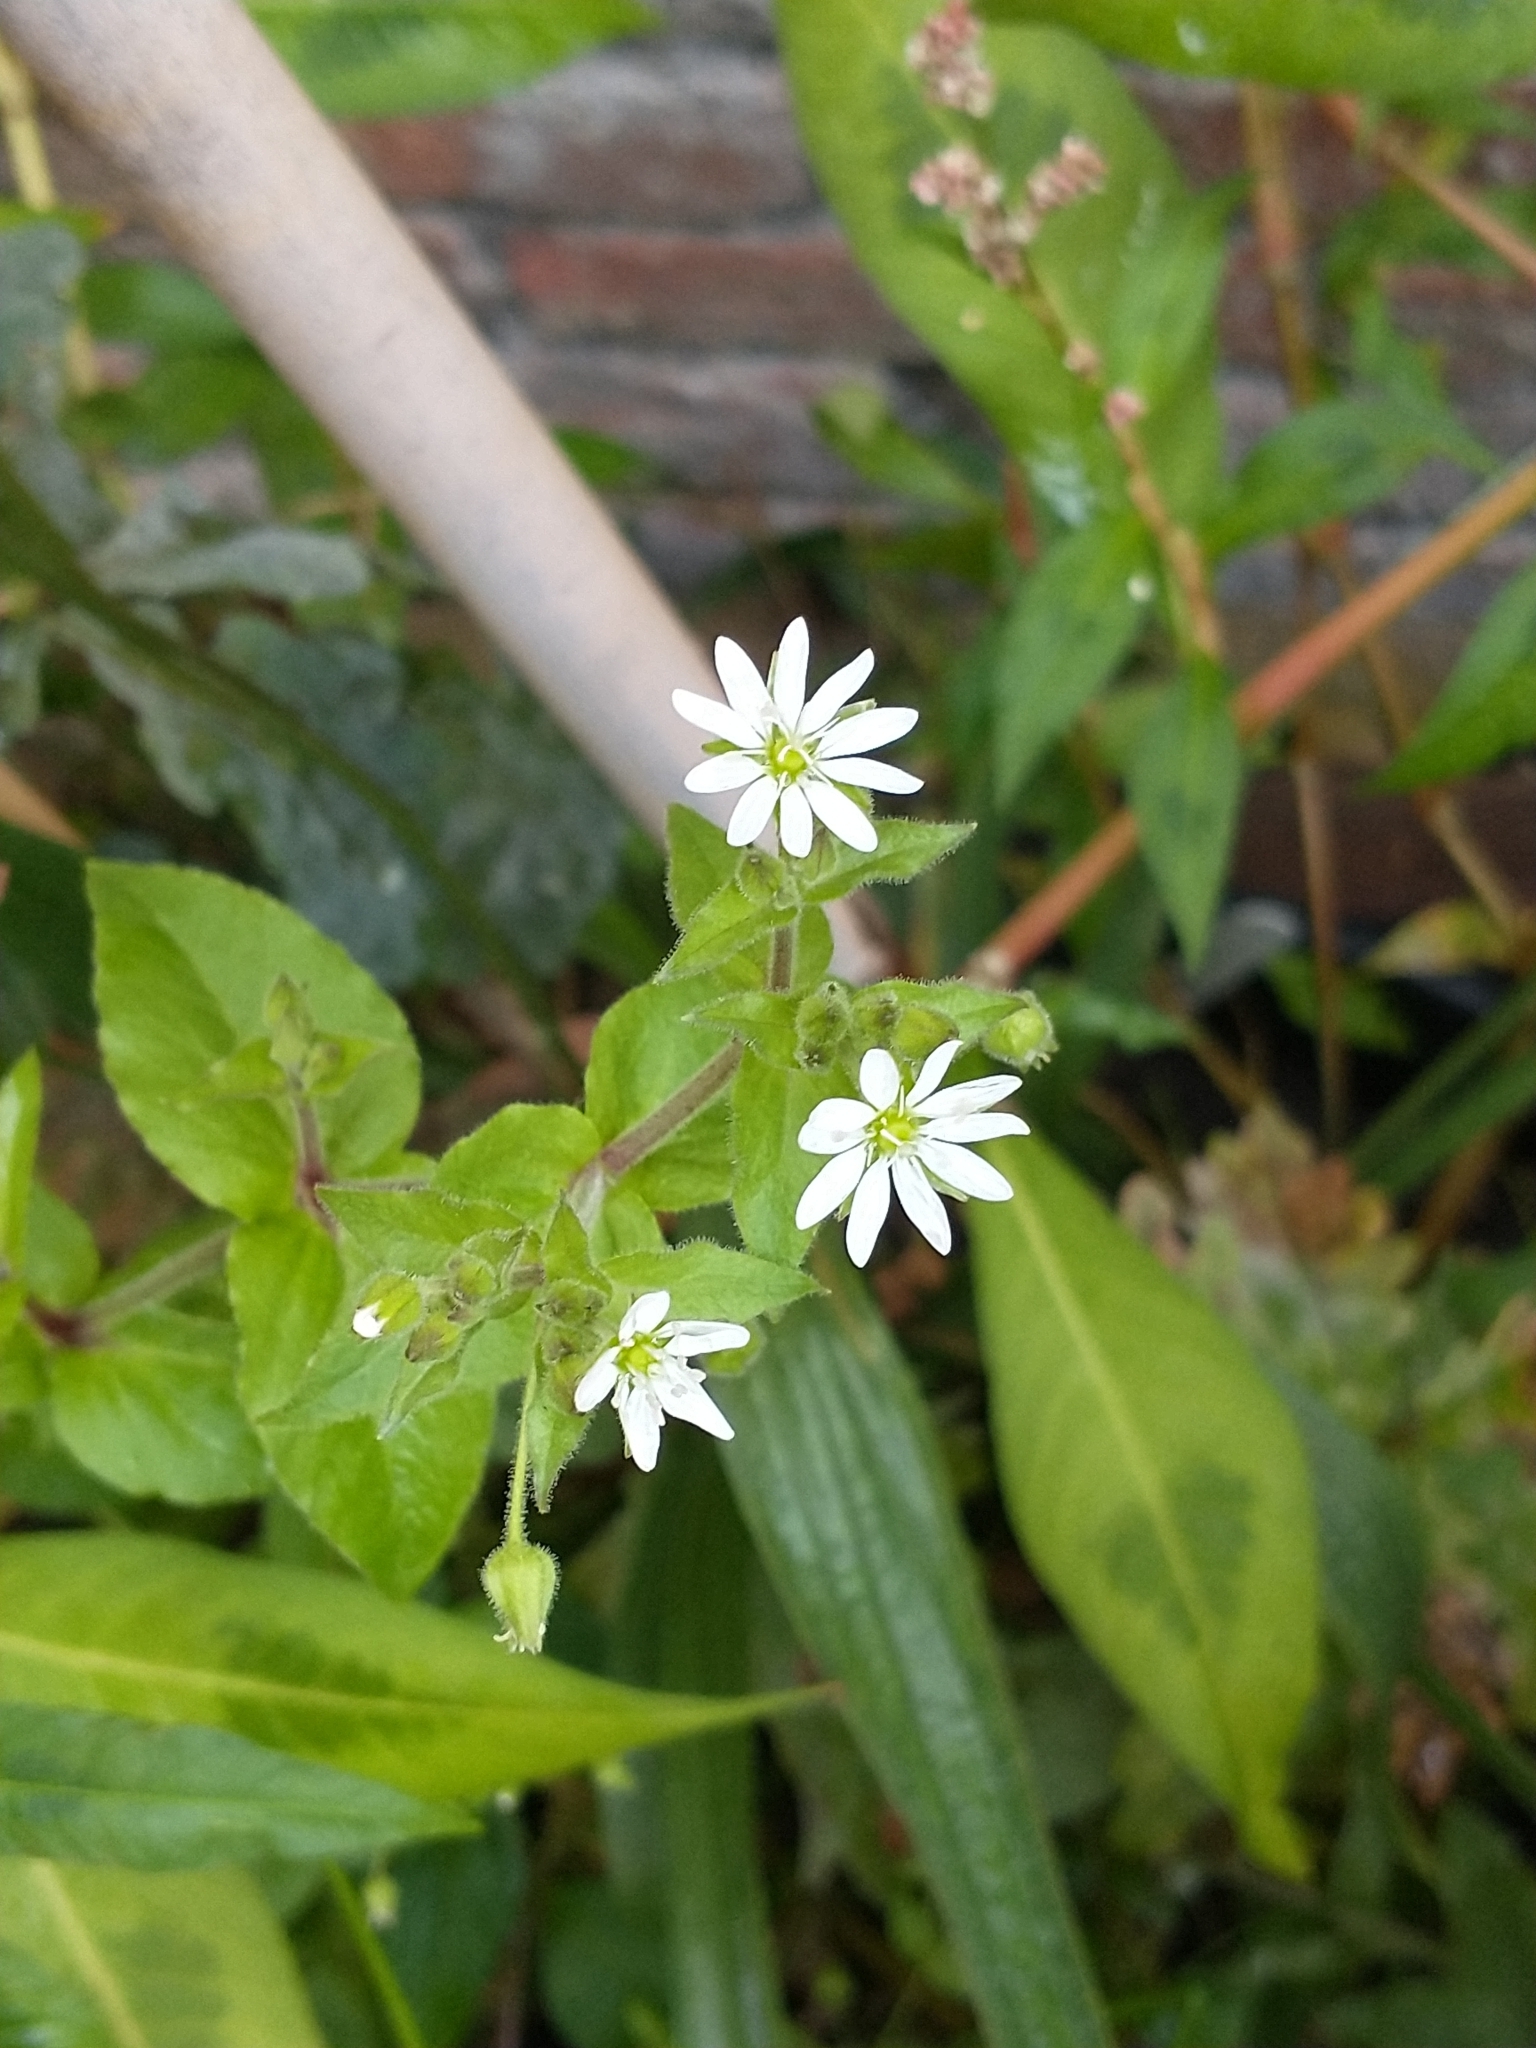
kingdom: Plantae
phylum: Tracheophyta
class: Magnoliopsida
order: Caryophyllales
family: Caryophyllaceae
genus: Stellaria
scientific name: Stellaria aquatica
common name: Water chickweed
